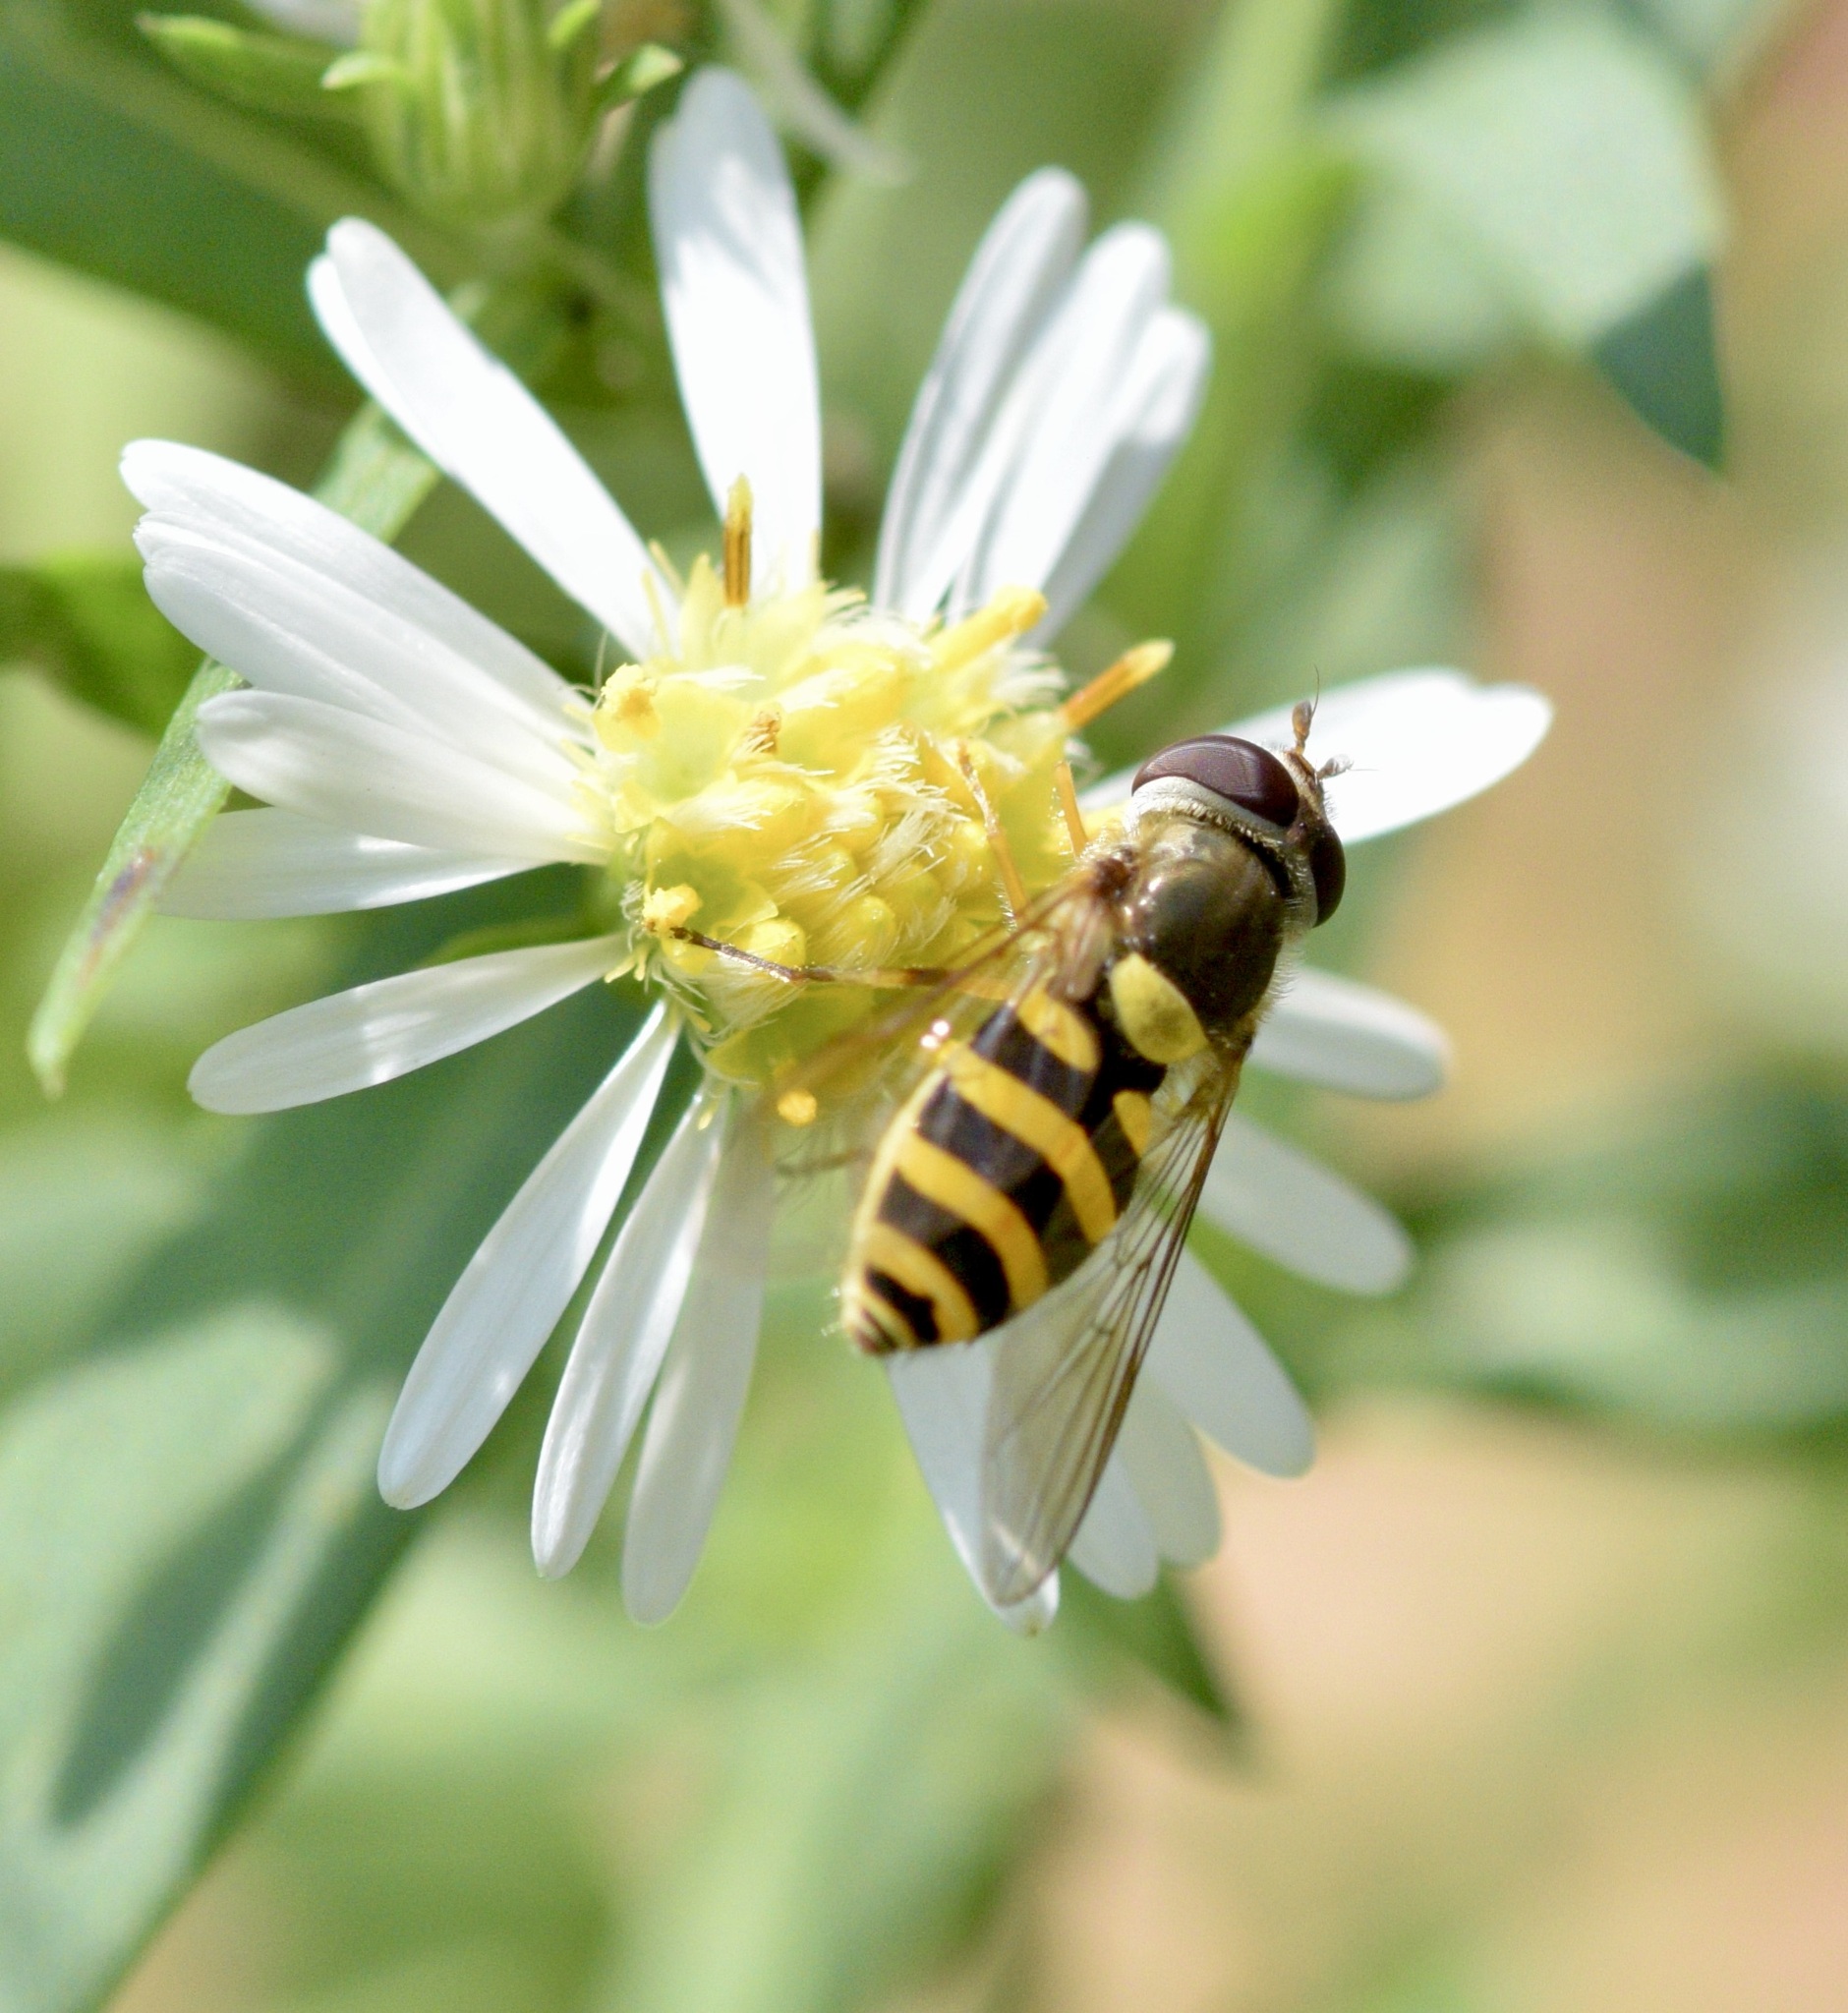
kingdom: Animalia
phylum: Arthropoda
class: Insecta
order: Diptera
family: Syrphidae
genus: Syrphus
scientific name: Syrphus rectus
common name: Yellow-legged flower fly
